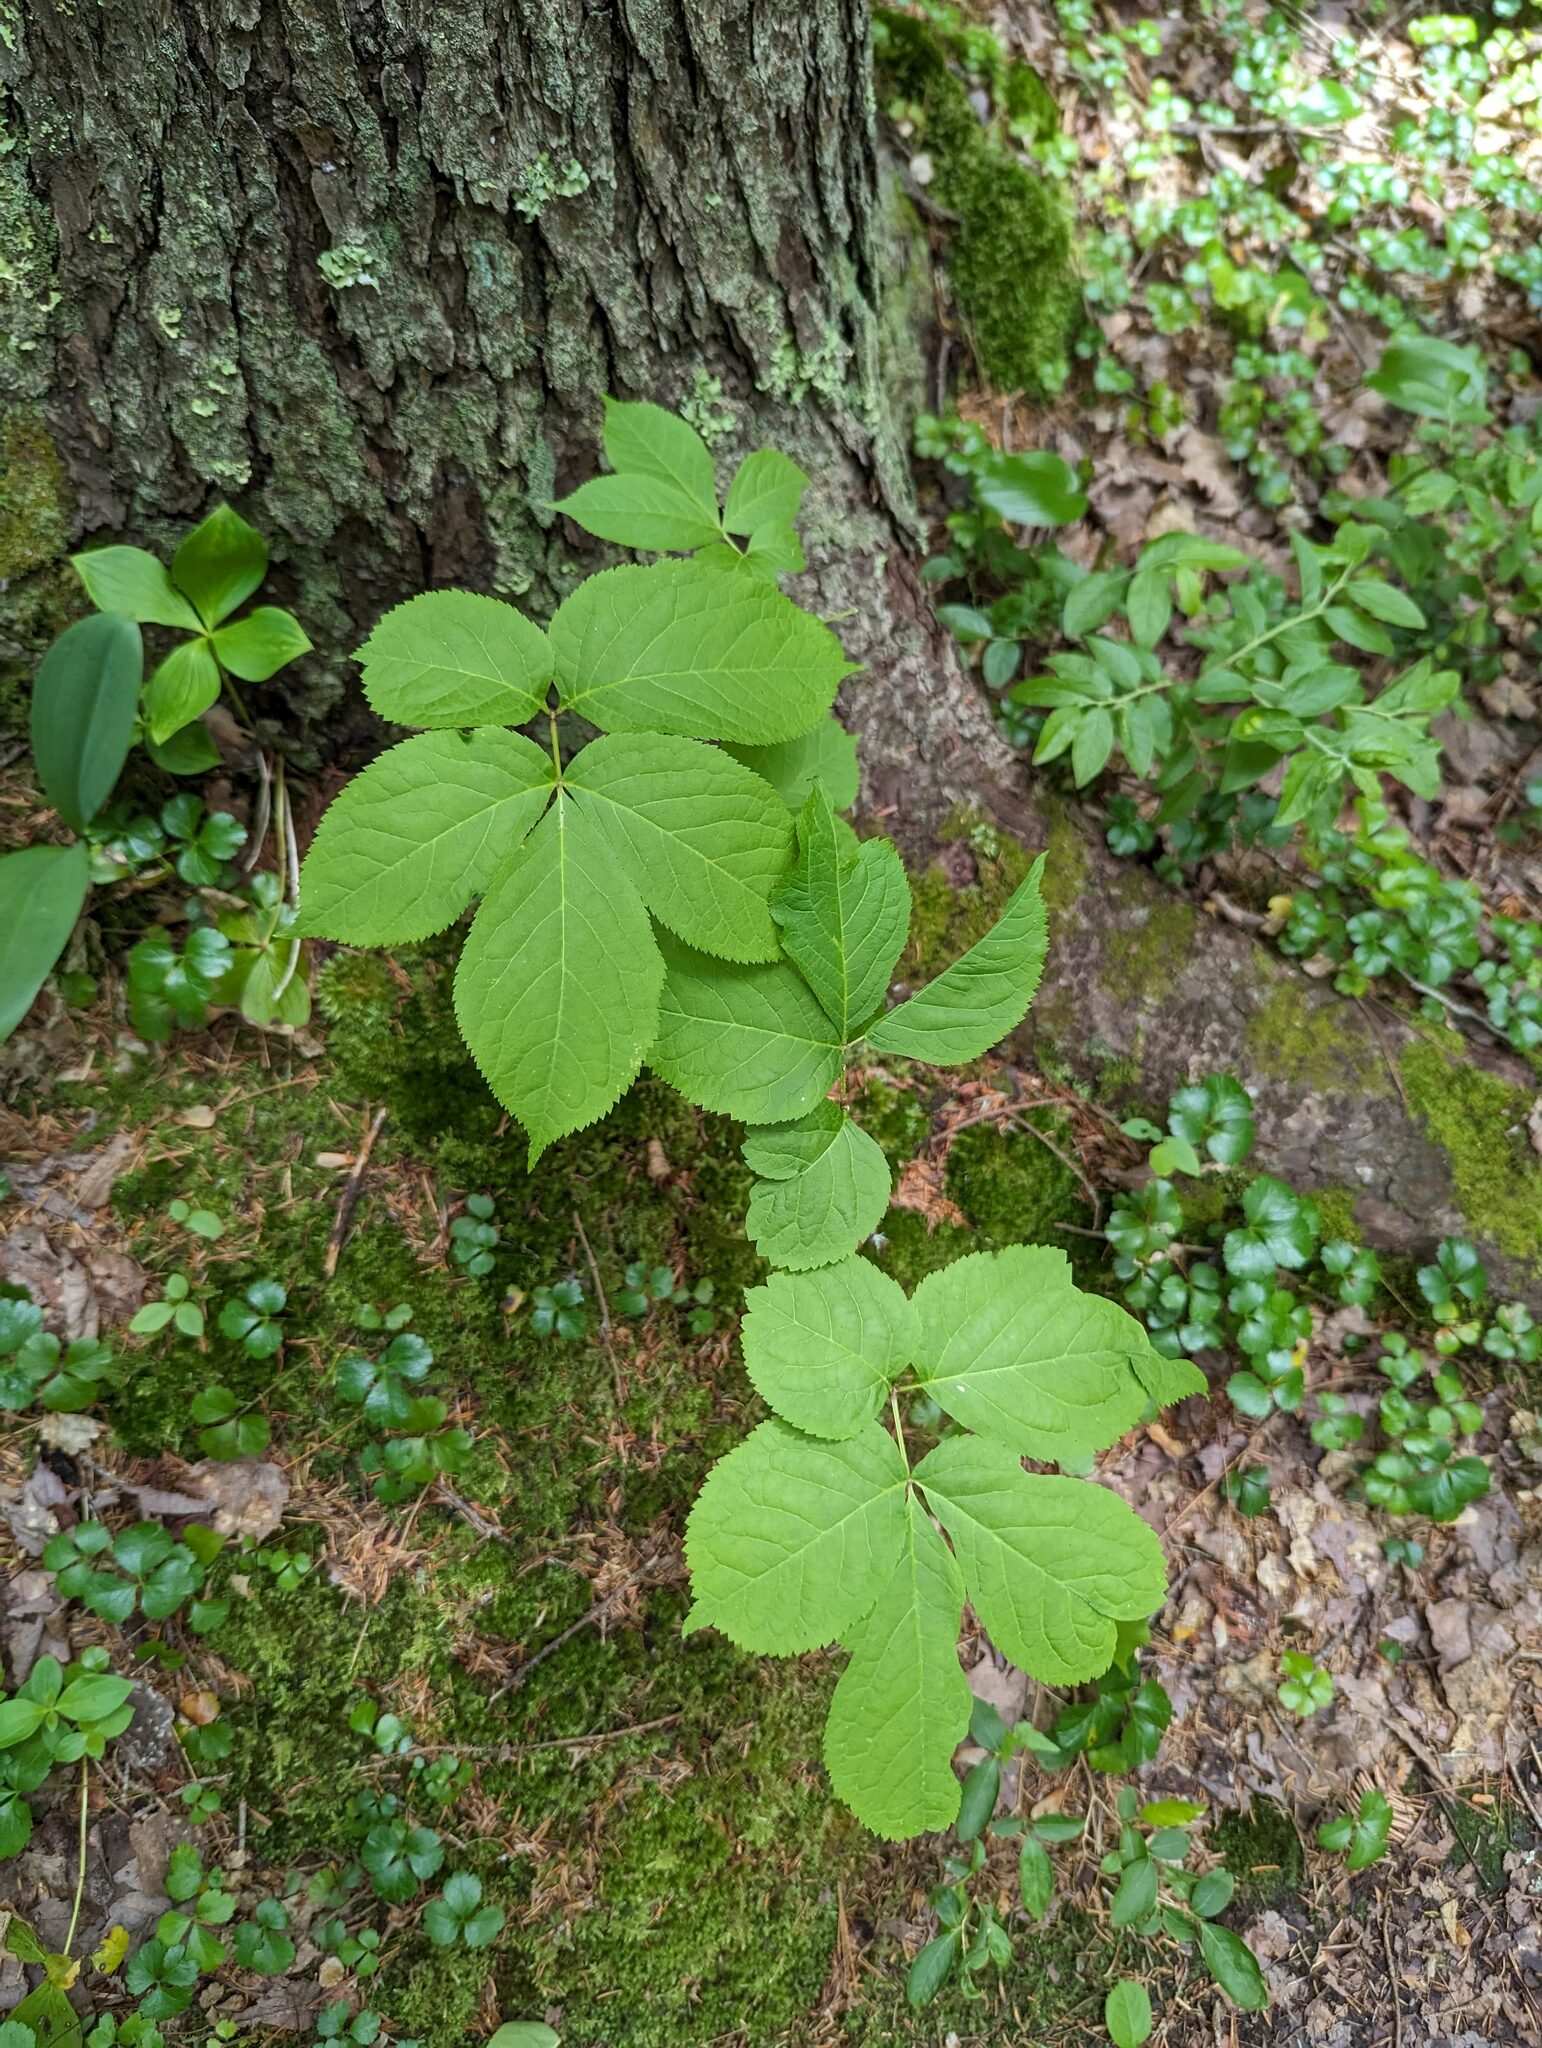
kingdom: Plantae
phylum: Tracheophyta
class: Magnoliopsida
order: Apiales
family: Araliaceae
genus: Aralia
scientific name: Aralia nudicaulis
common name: Wild sarsaparilla
